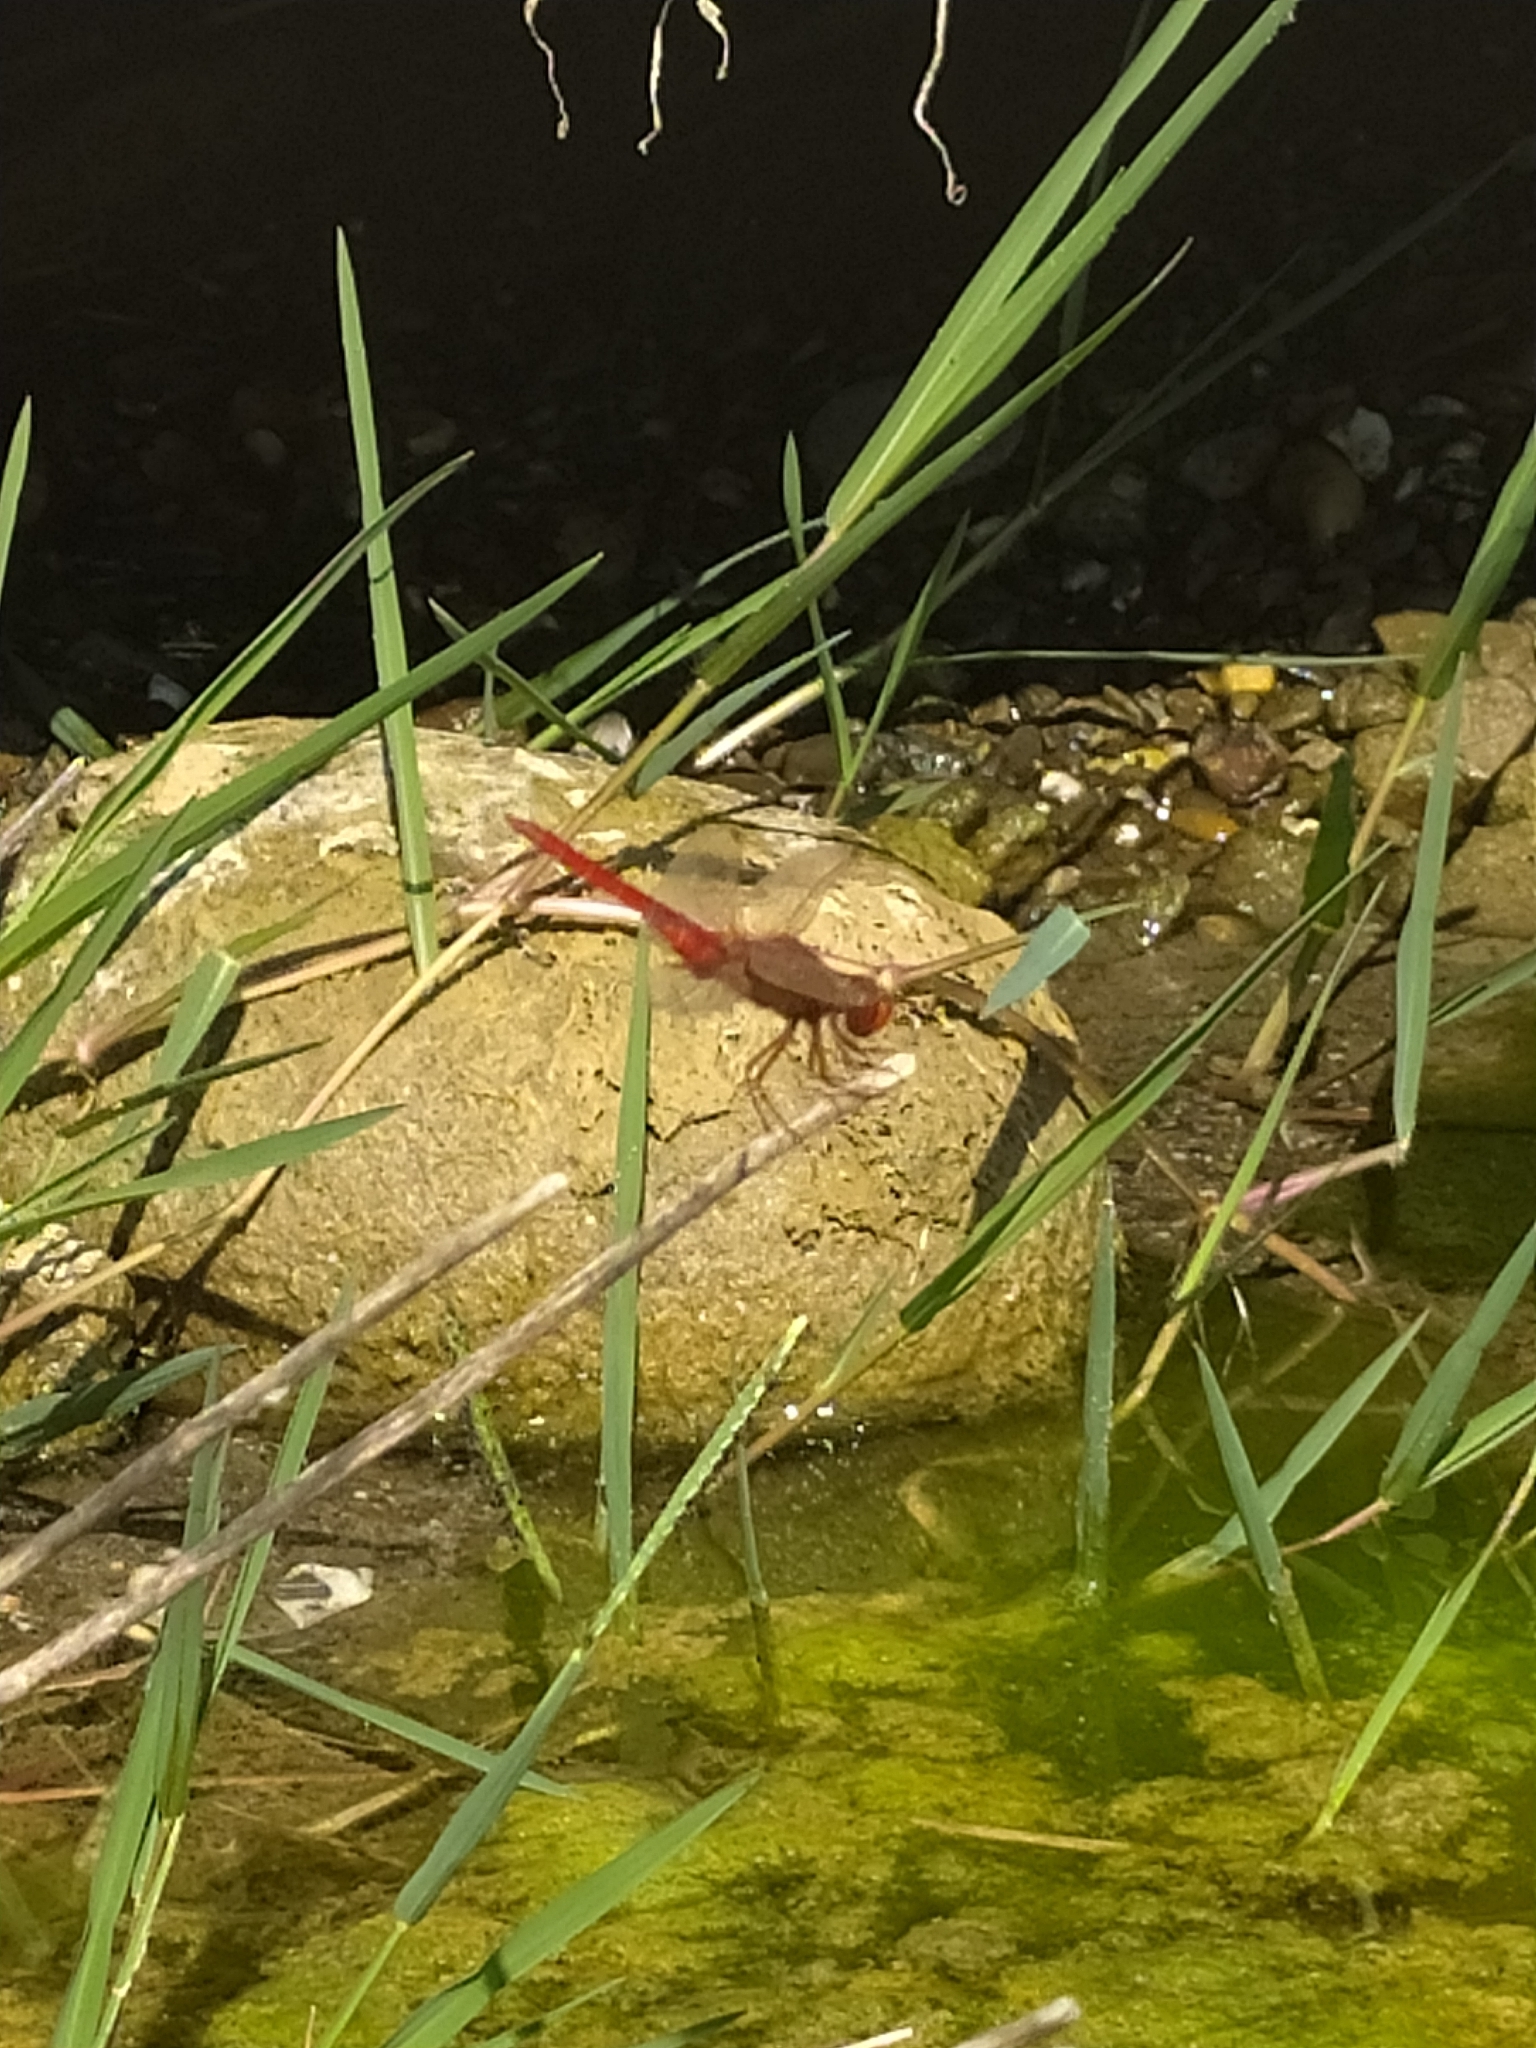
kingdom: Animalia
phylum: Arthropoda
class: Insecta
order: Odonata
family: Libellulidae
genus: Crocothemis
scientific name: Crocothemis erythraea
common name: Scarlet dragonfly
